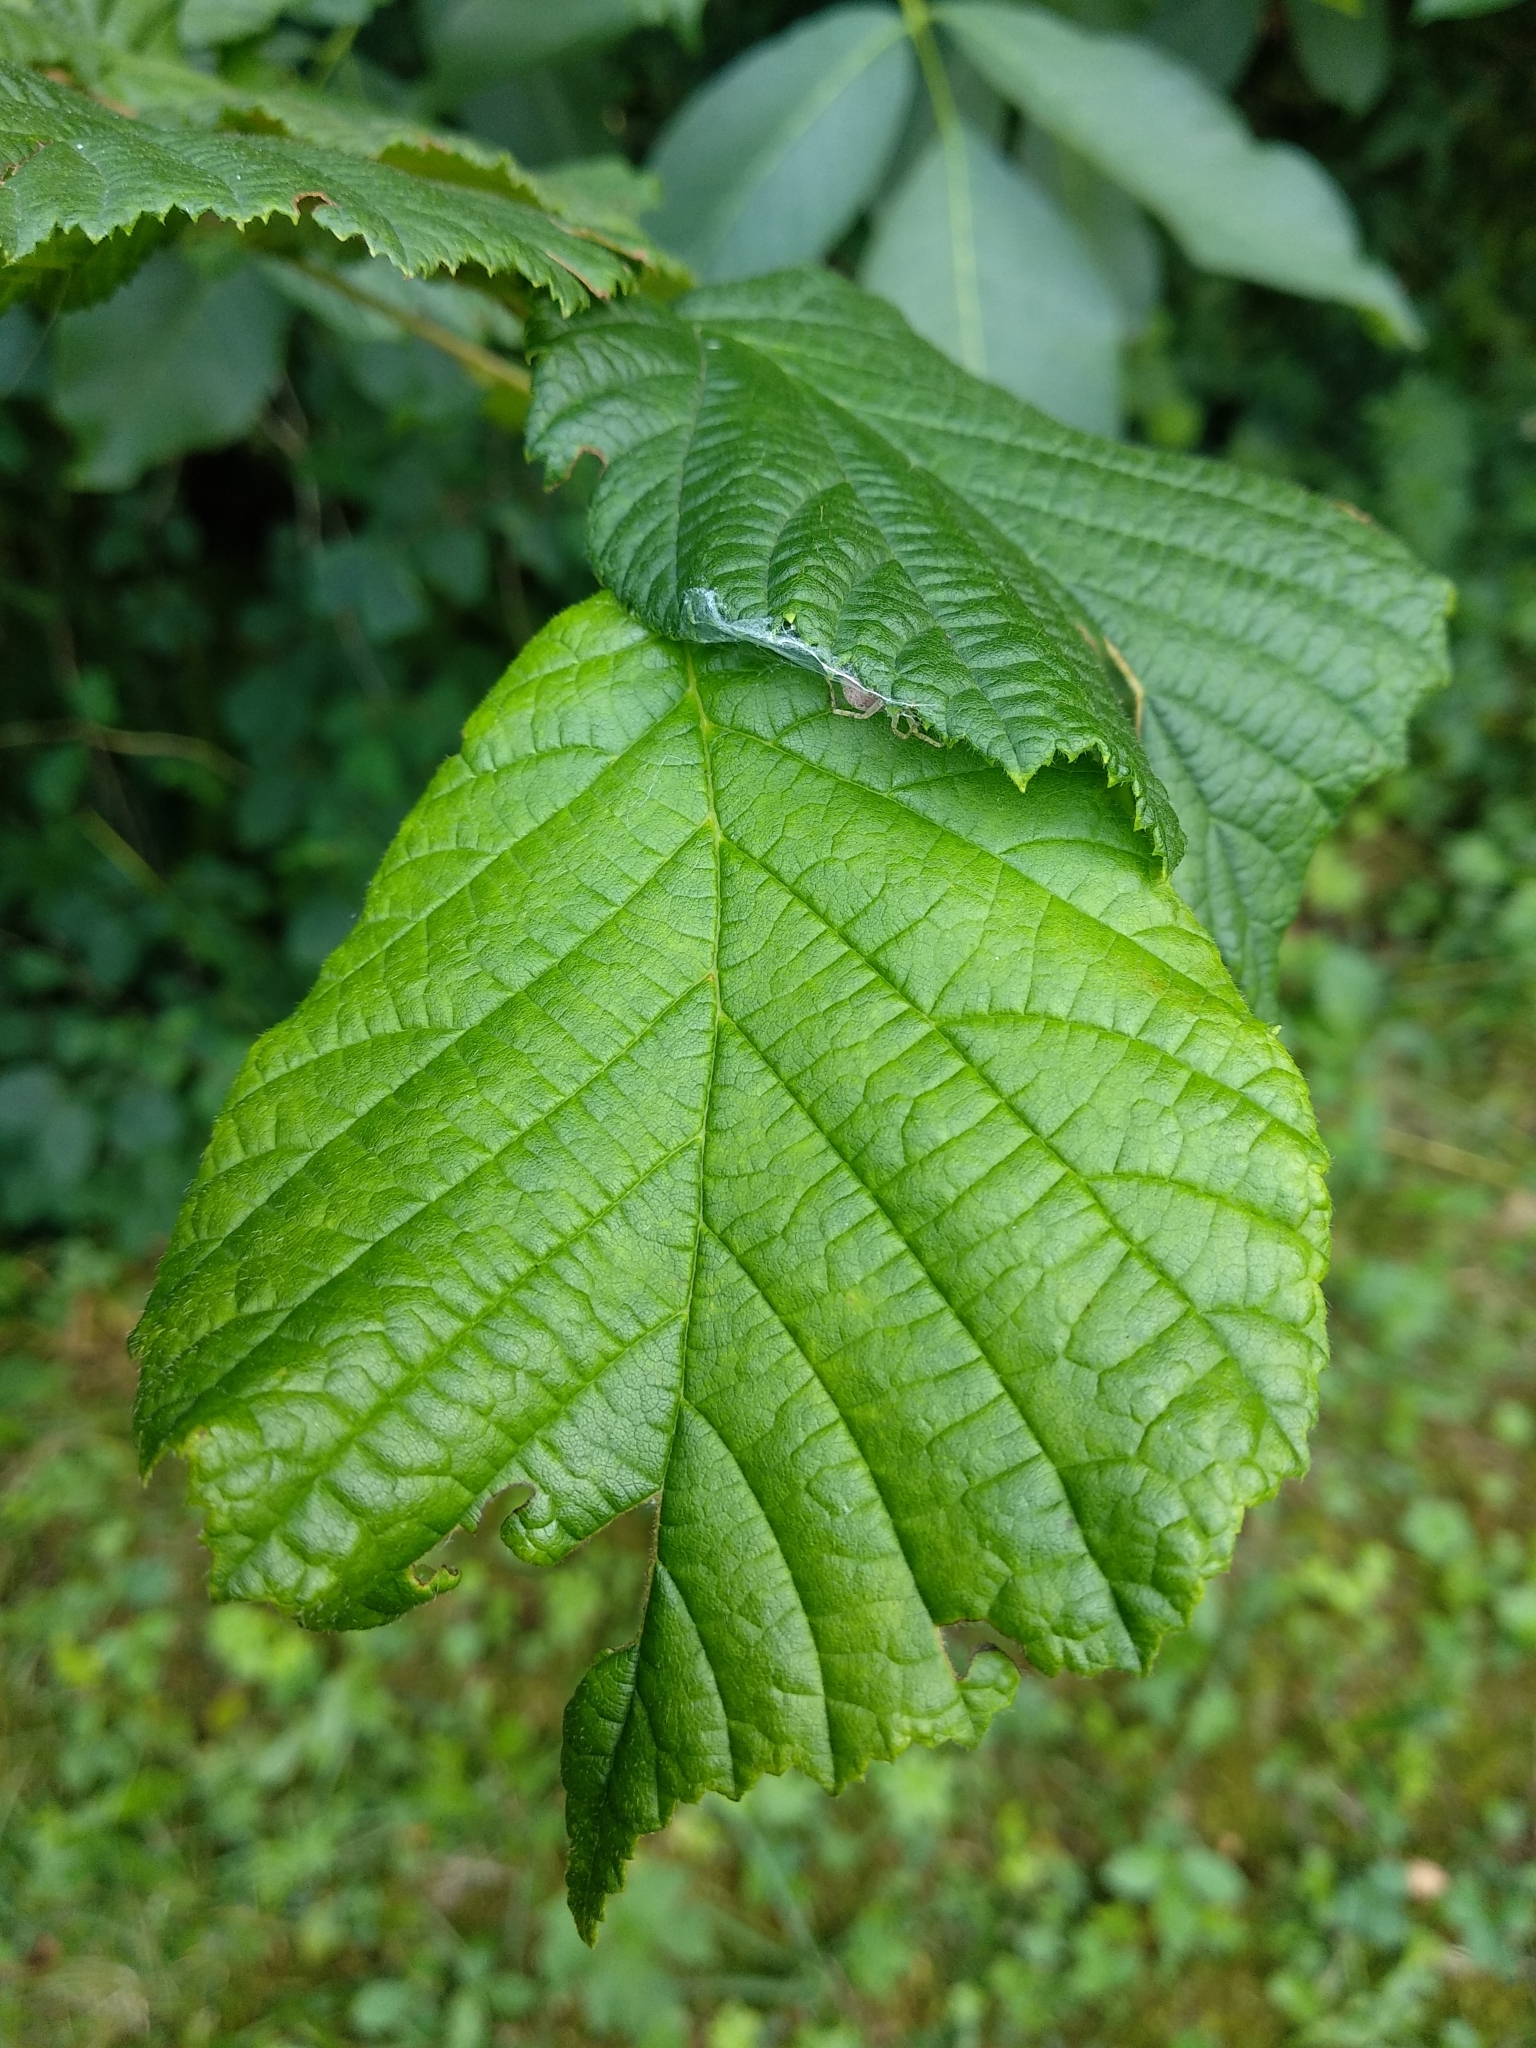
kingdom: Plantae
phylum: Tracheophyta
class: Magnoliopsida
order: Fagales
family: Betulaceae
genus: Corylus
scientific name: Corylus avellana
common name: European hazel
